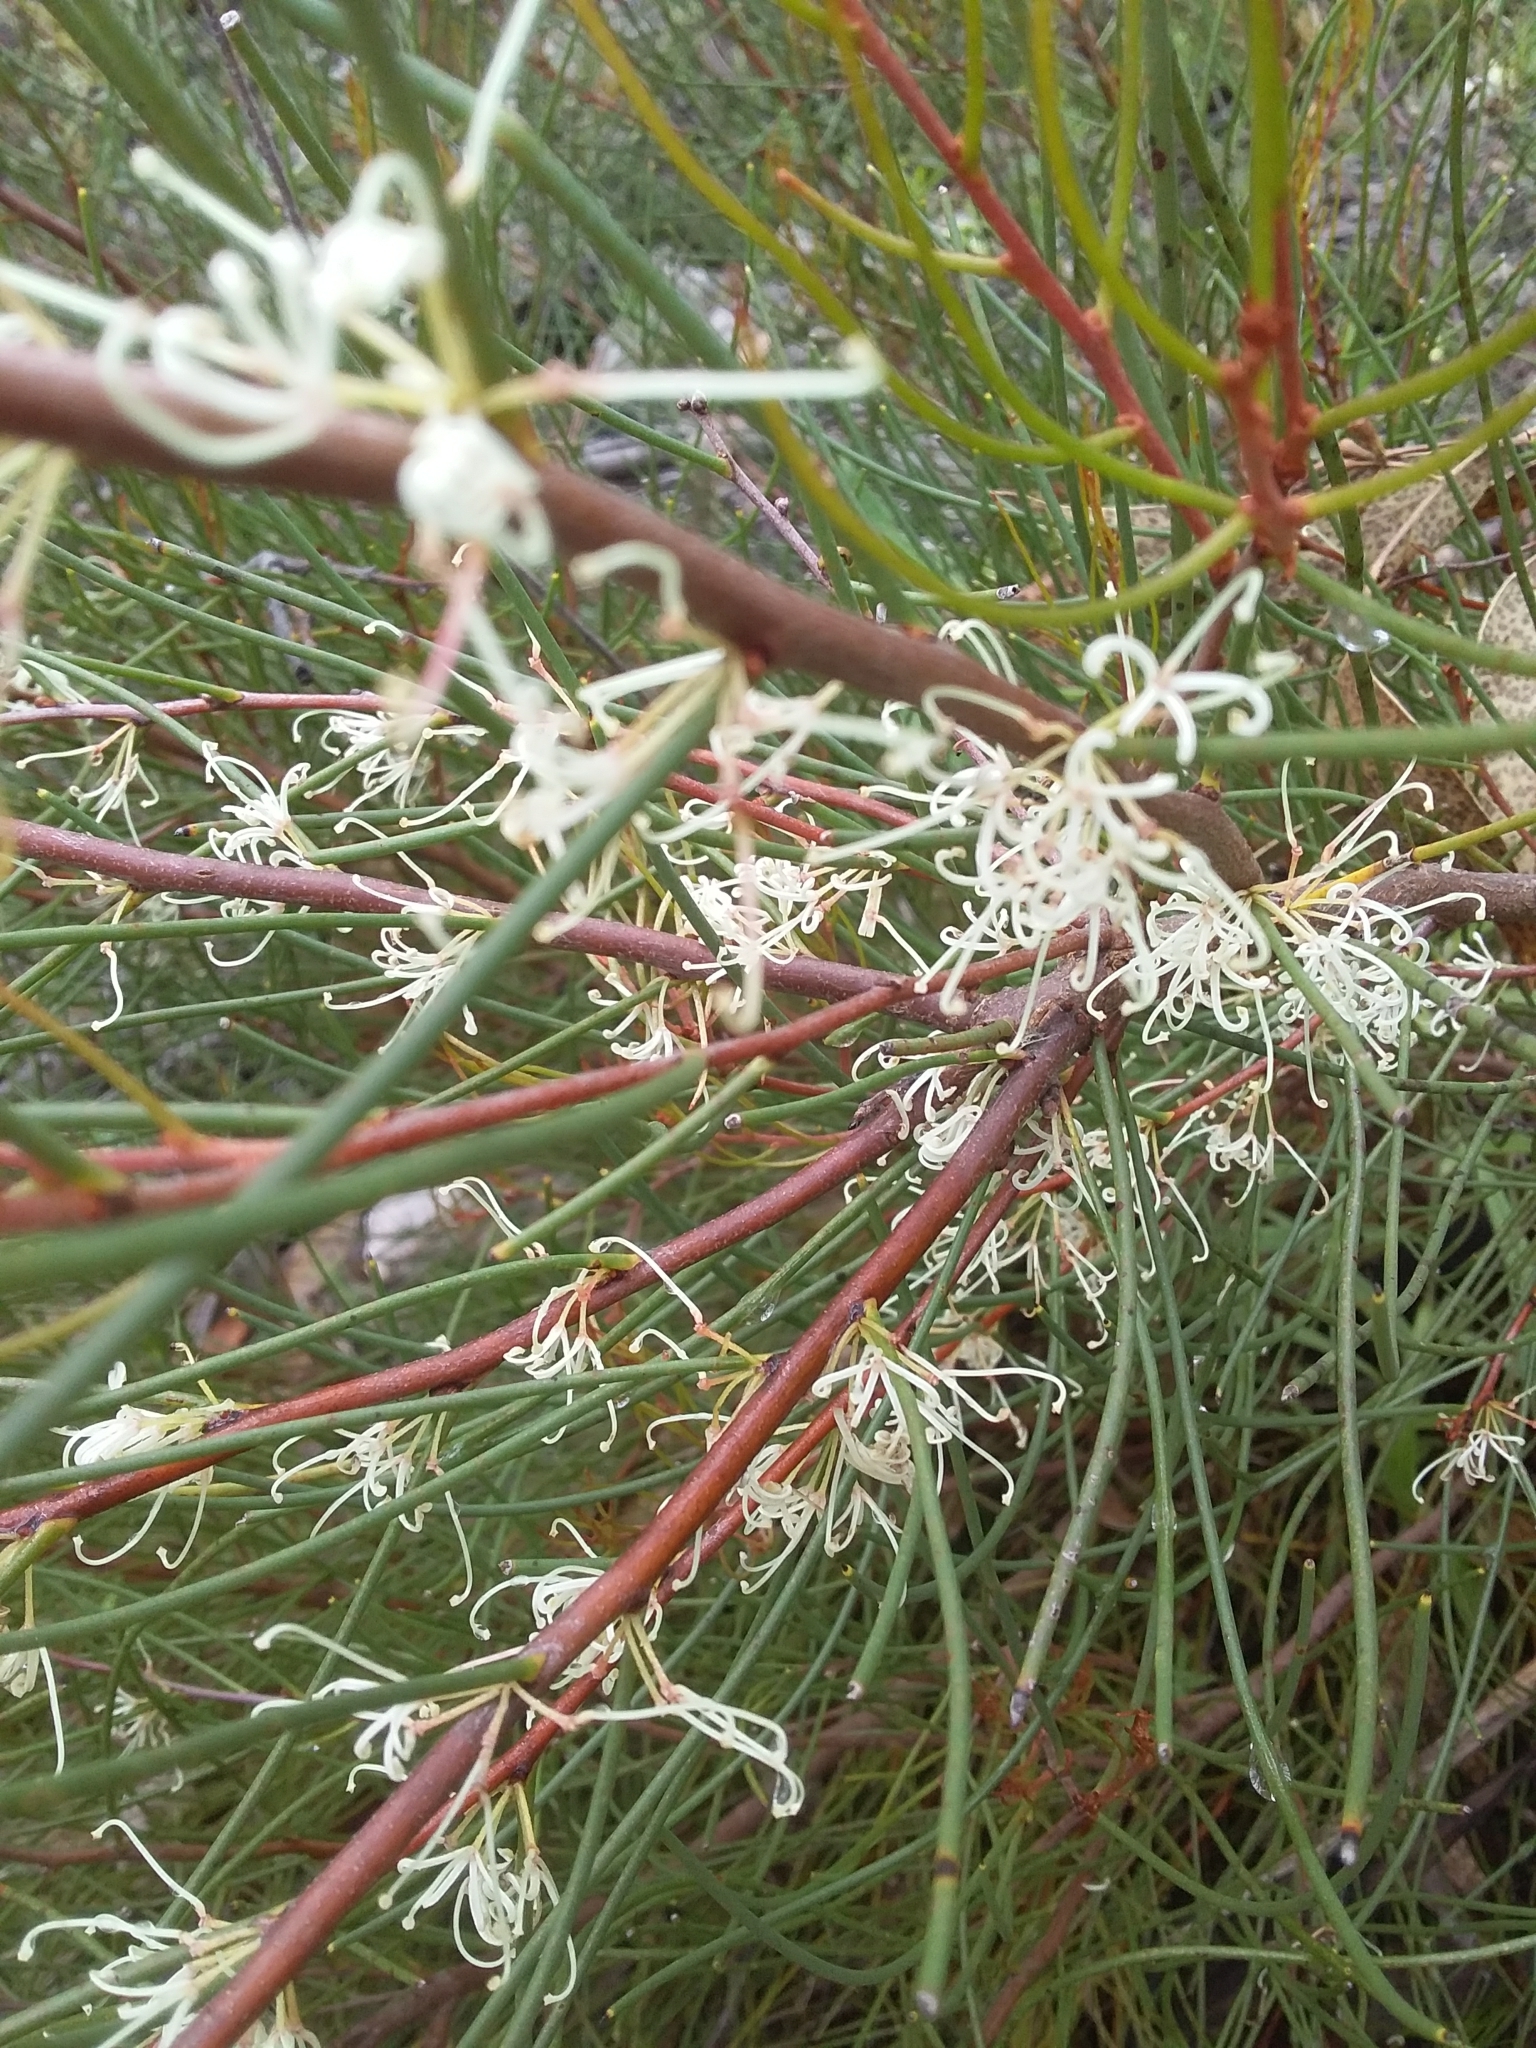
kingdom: Plantae
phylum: Tracheophyta
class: Magnoliopsida
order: Proteales
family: Proteaceae
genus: Hakea
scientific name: Hakea rostrata
